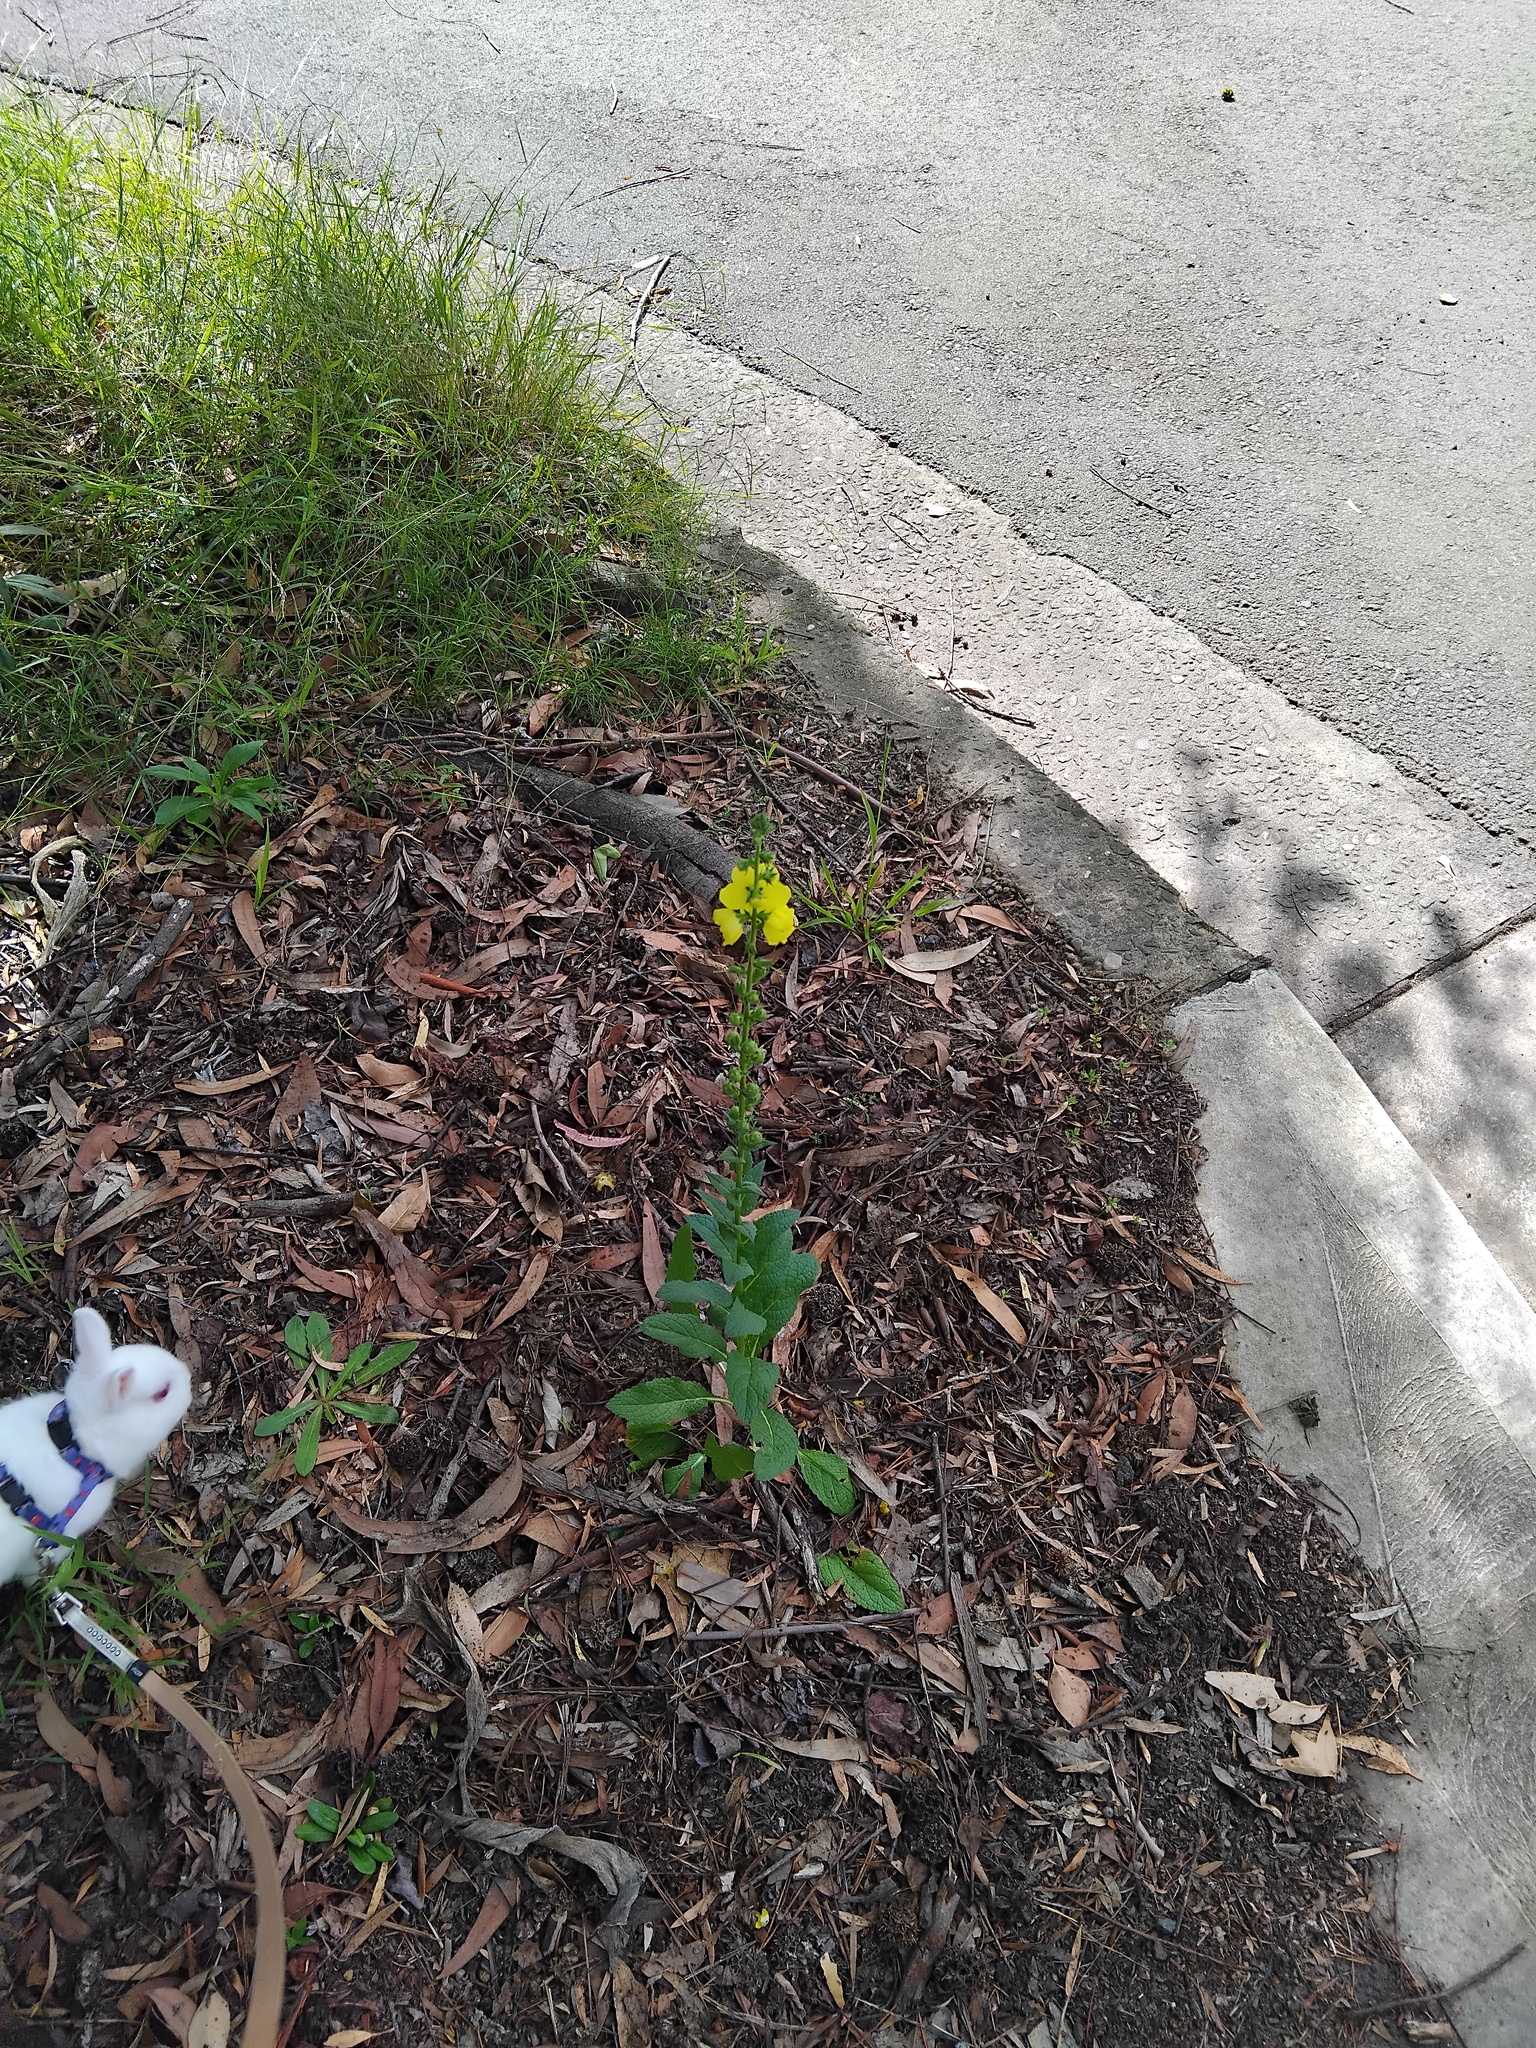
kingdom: Plantae
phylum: Tracheophyta
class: Magnoliopsida
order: Lamiales
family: Scrophulariaceae
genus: Verbascum
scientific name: Verbascum virgatum
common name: Twiggy mullein
